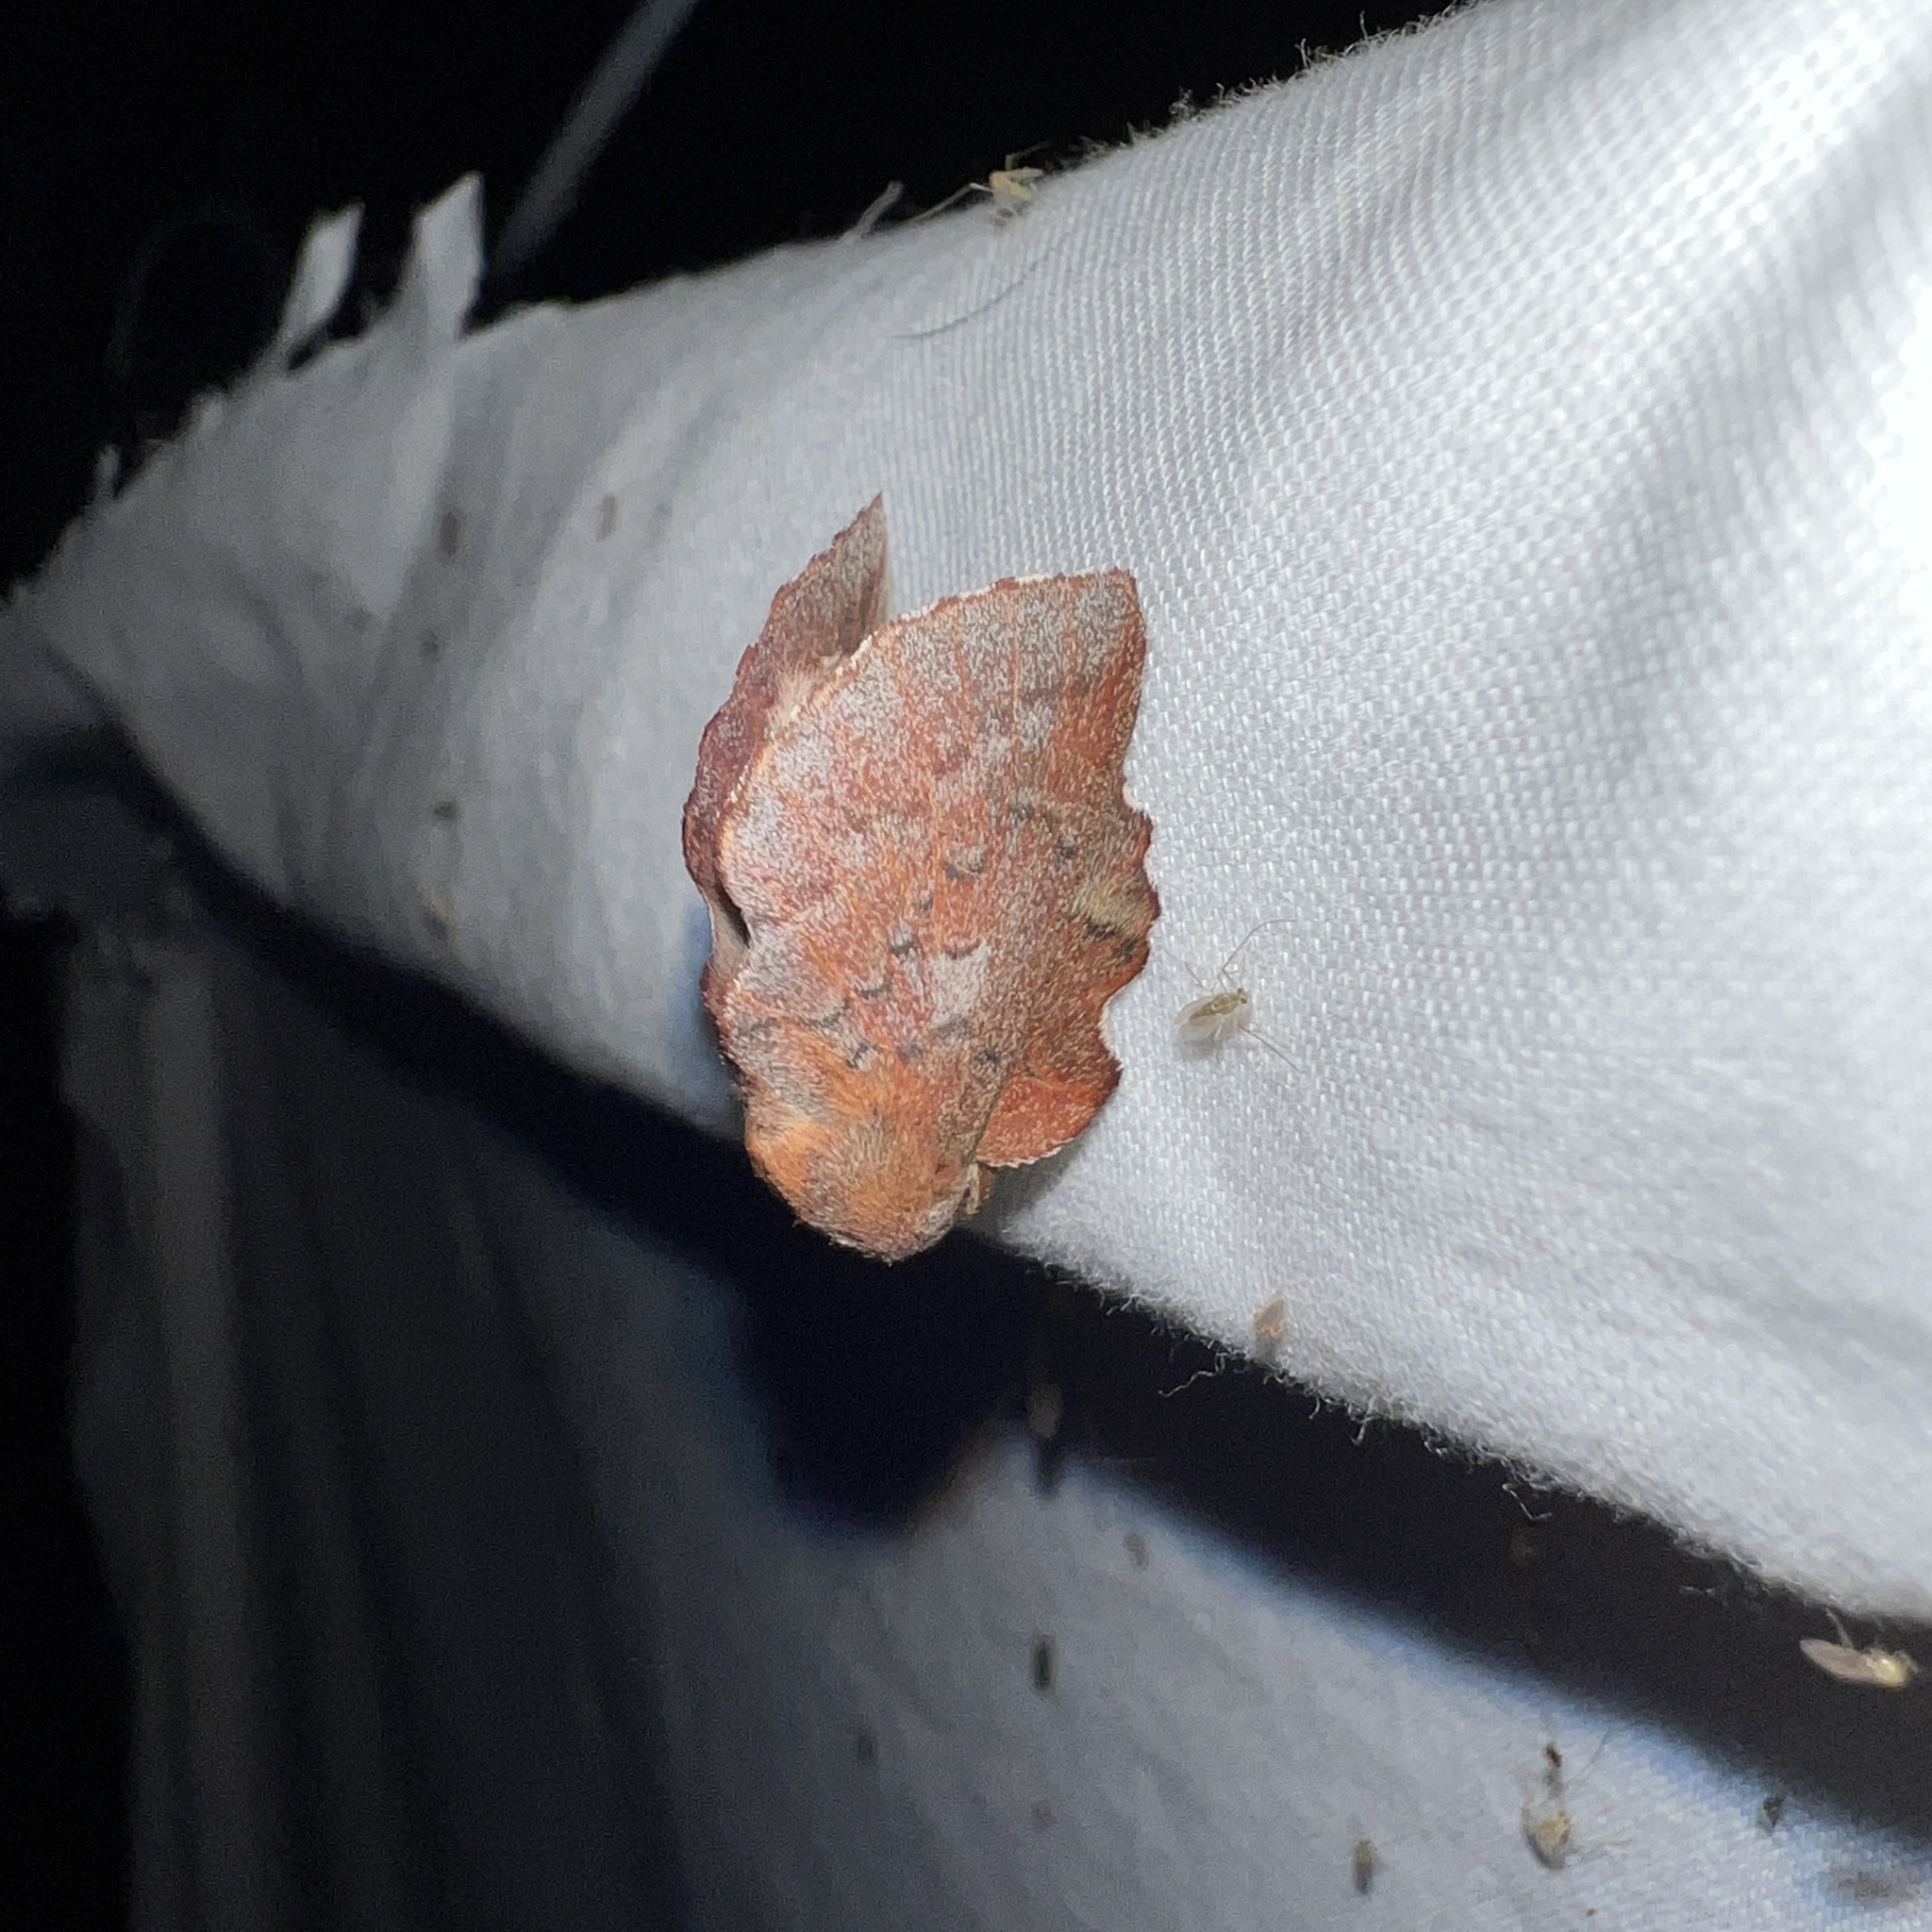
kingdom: Animalia
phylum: Arthropoda
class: Insecta
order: Lepidoptera
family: Lasiocampidae
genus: Phyllodesma
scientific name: Phyllodesma americana
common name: American lappet moth
